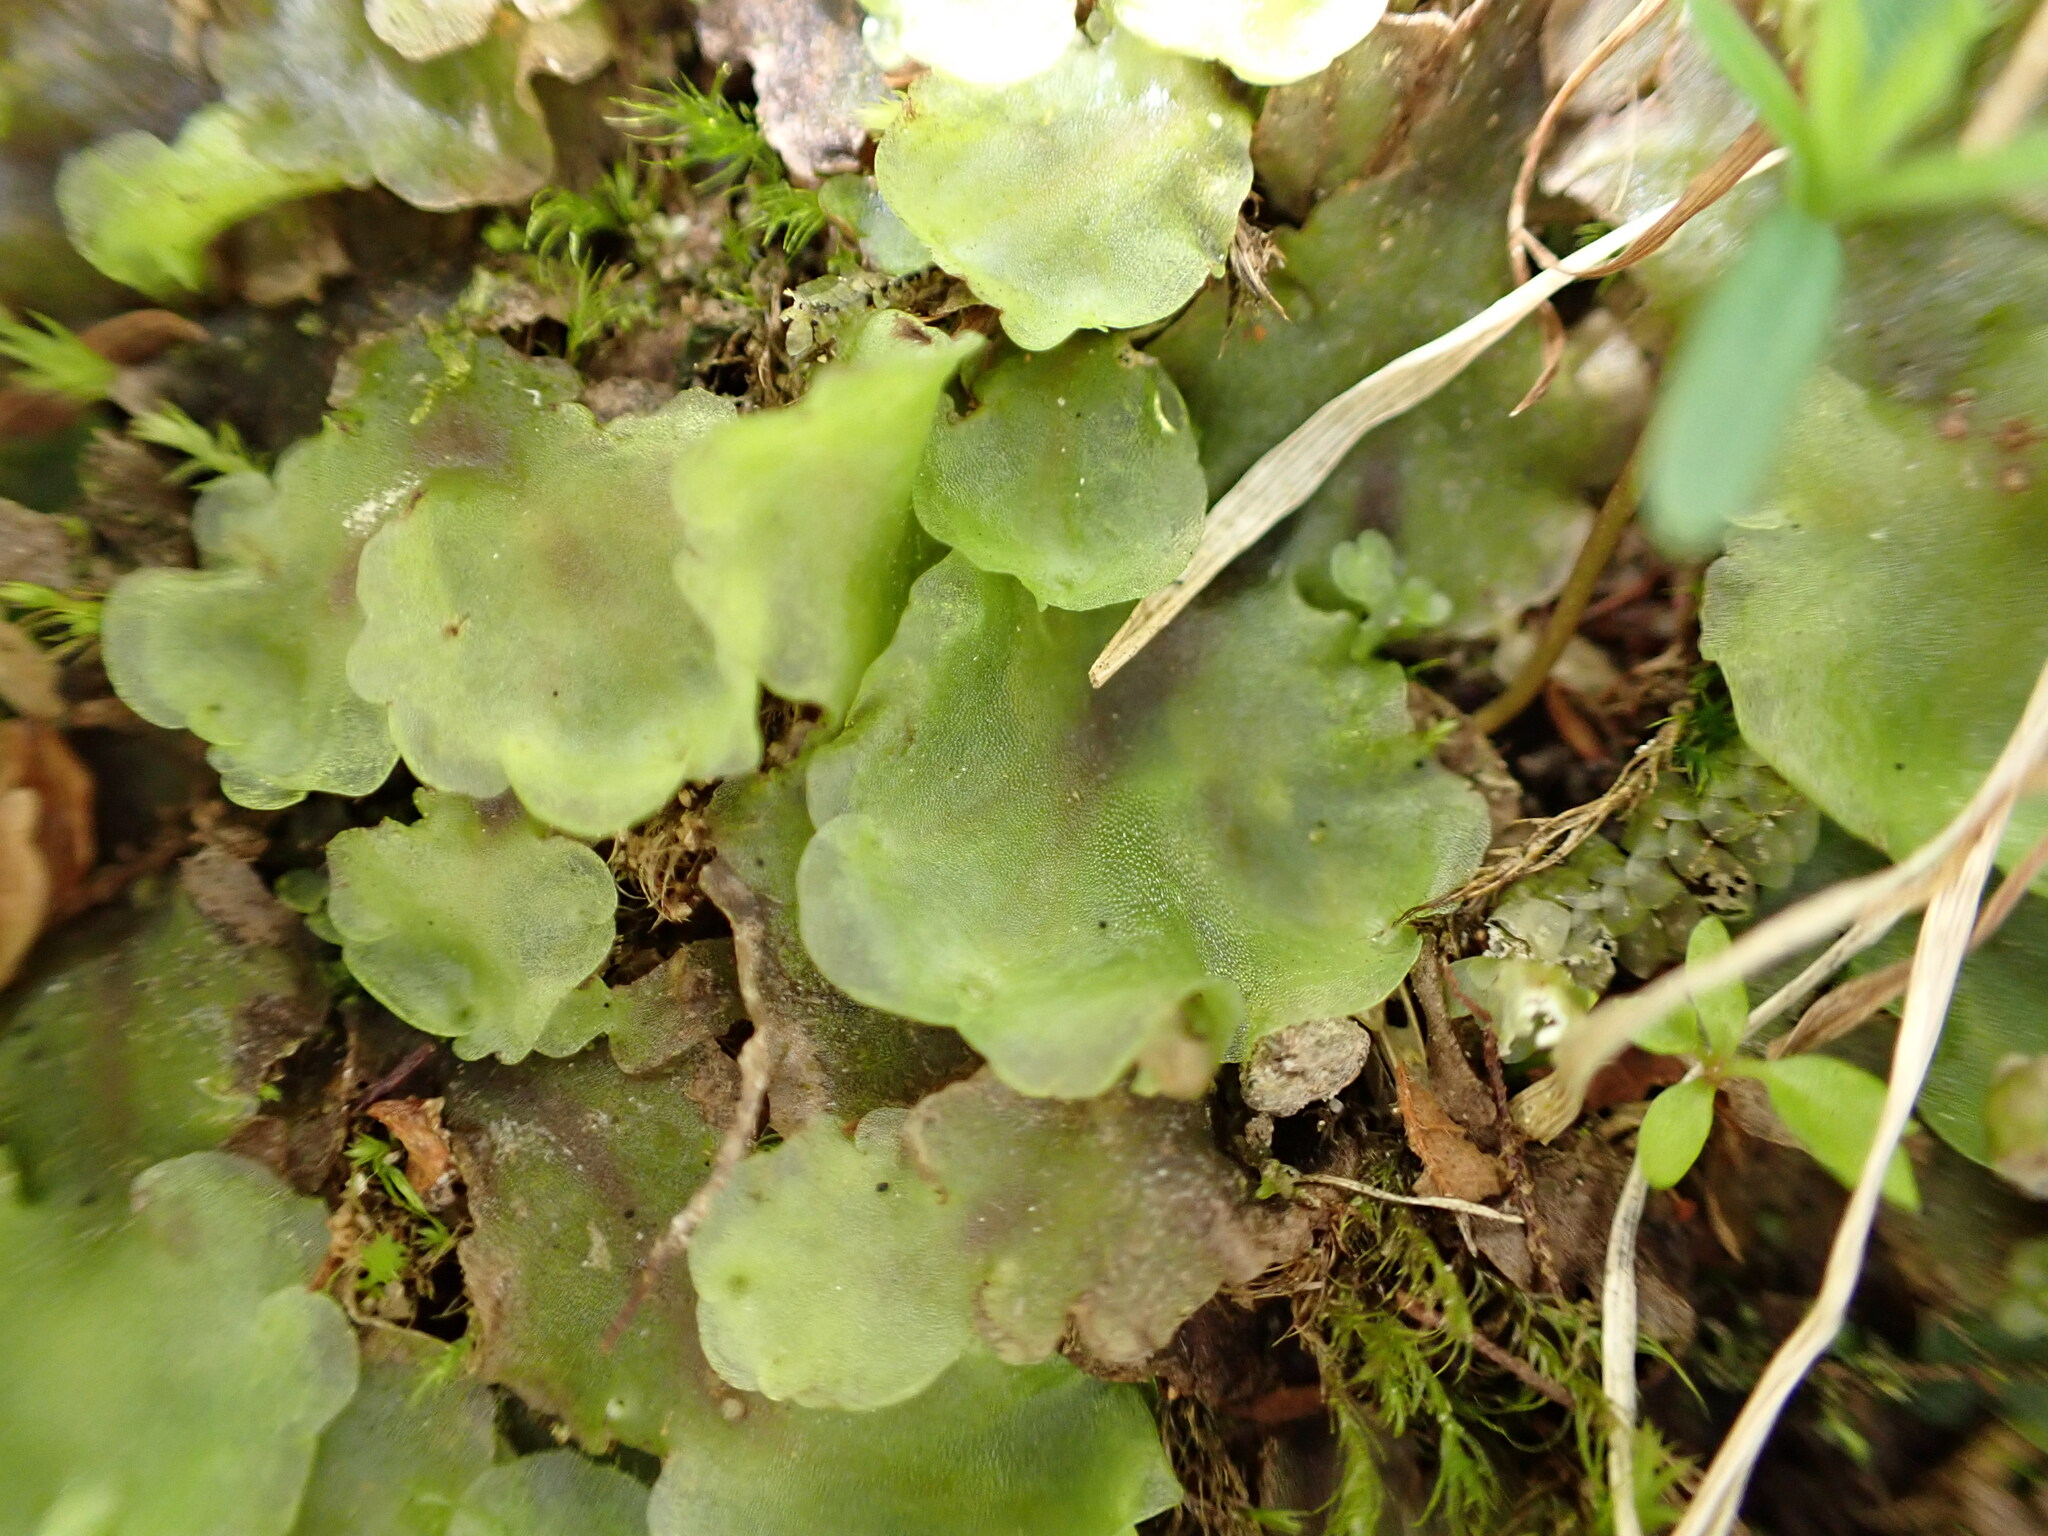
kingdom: Plantae
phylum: Marchantiophyta
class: Jungermanniopsida
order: Pelliales
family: Pelliaceae
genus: Pellia
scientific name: Pellia neesiana
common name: Nees  pellia
